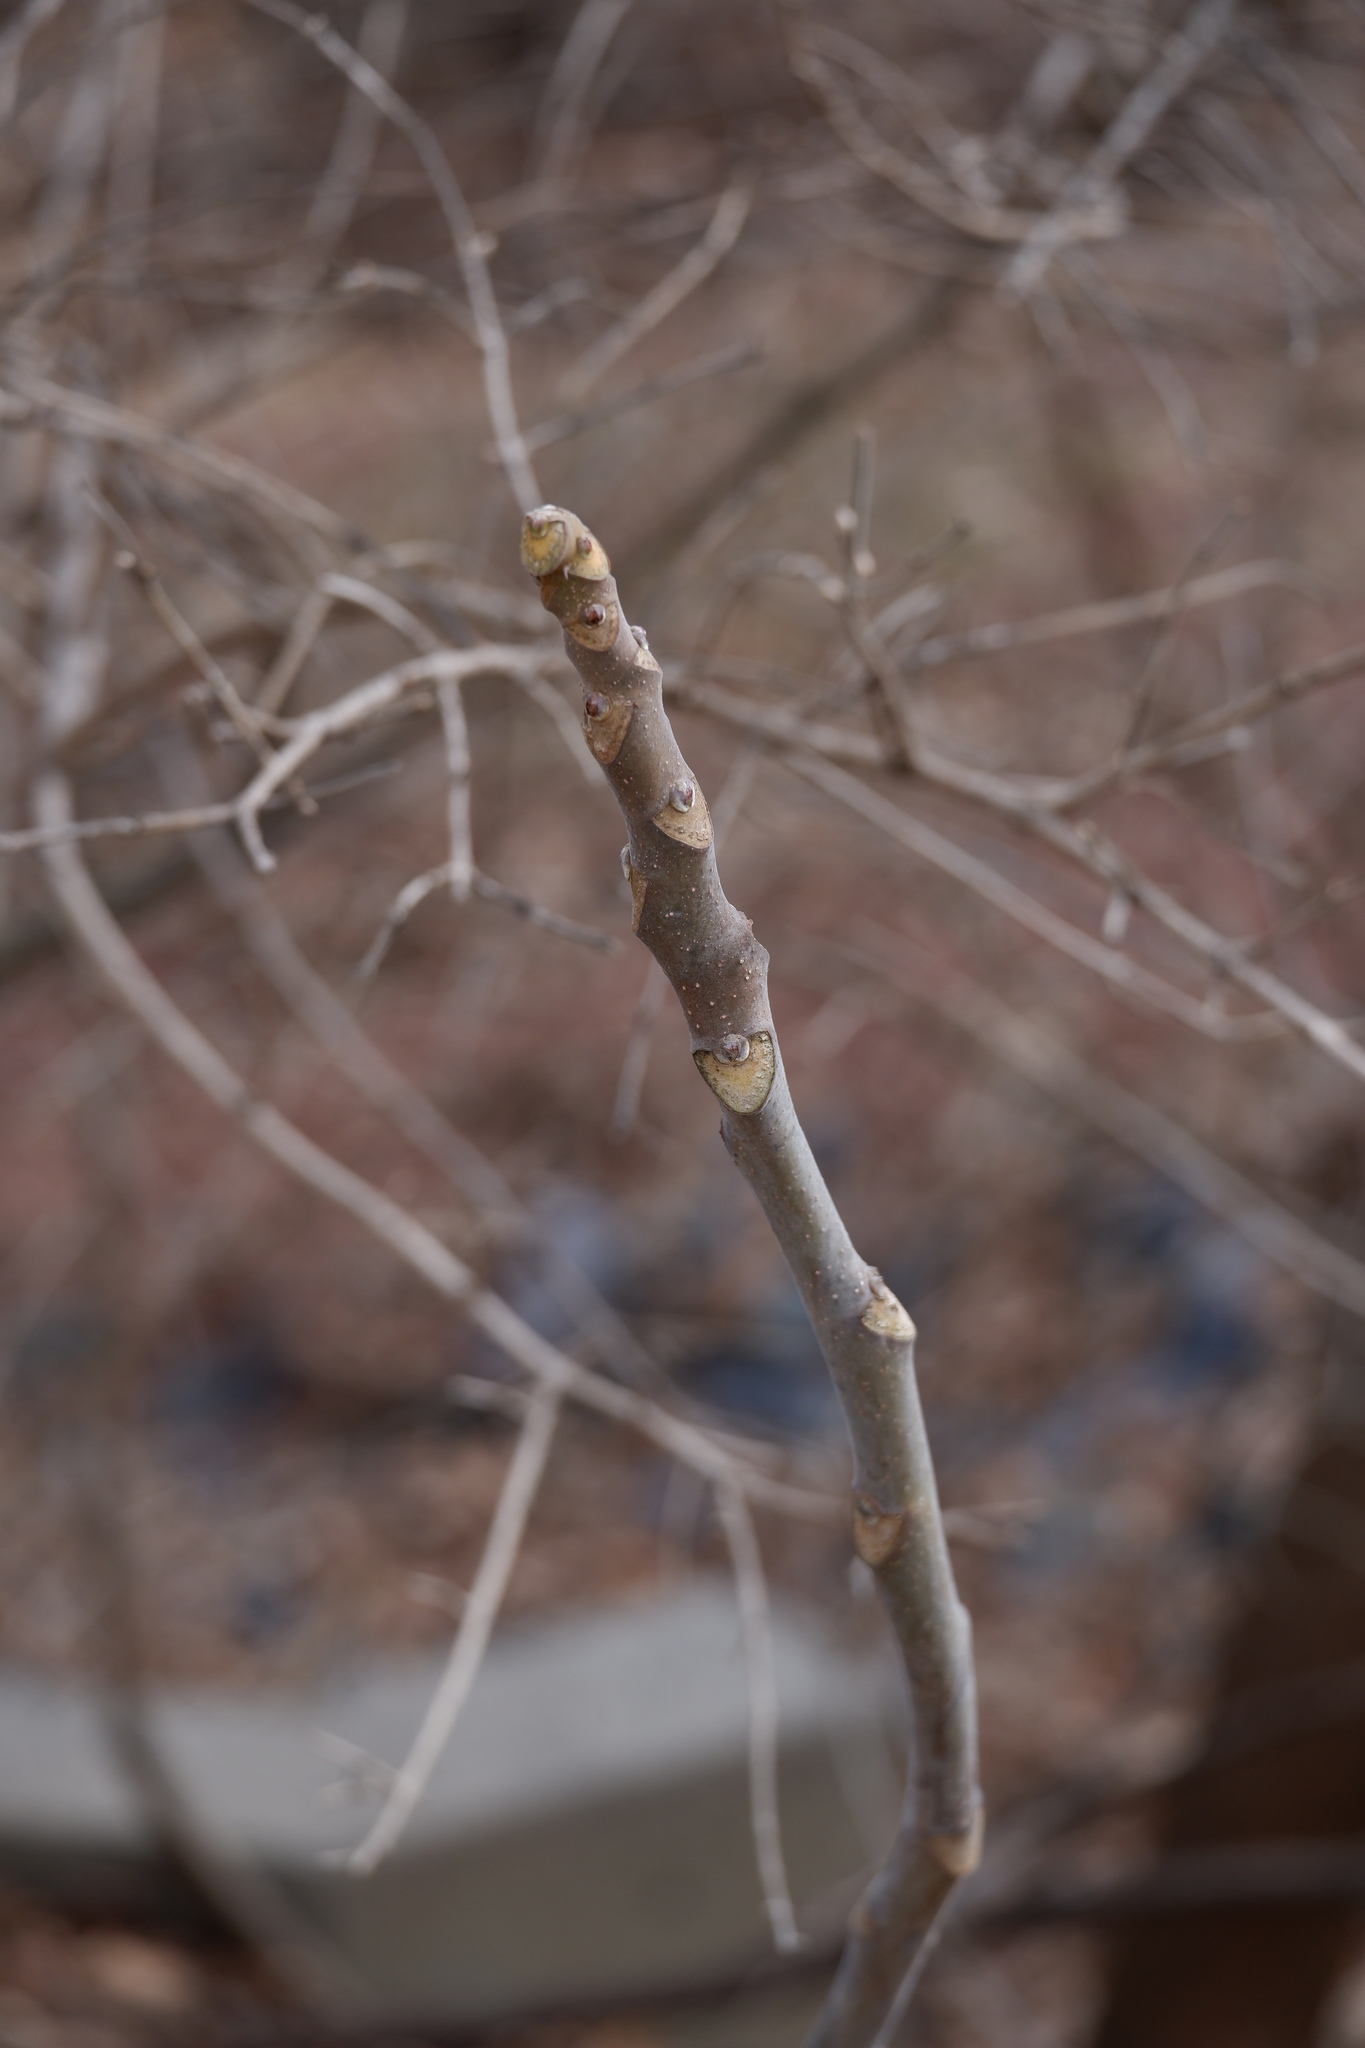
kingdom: Plantae
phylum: Tracheophyta
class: Magnoliopsida
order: Sapindales
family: Simaroubaceae
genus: Ailanthus
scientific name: Ailanthus altissima
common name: Tree-of-heaven
